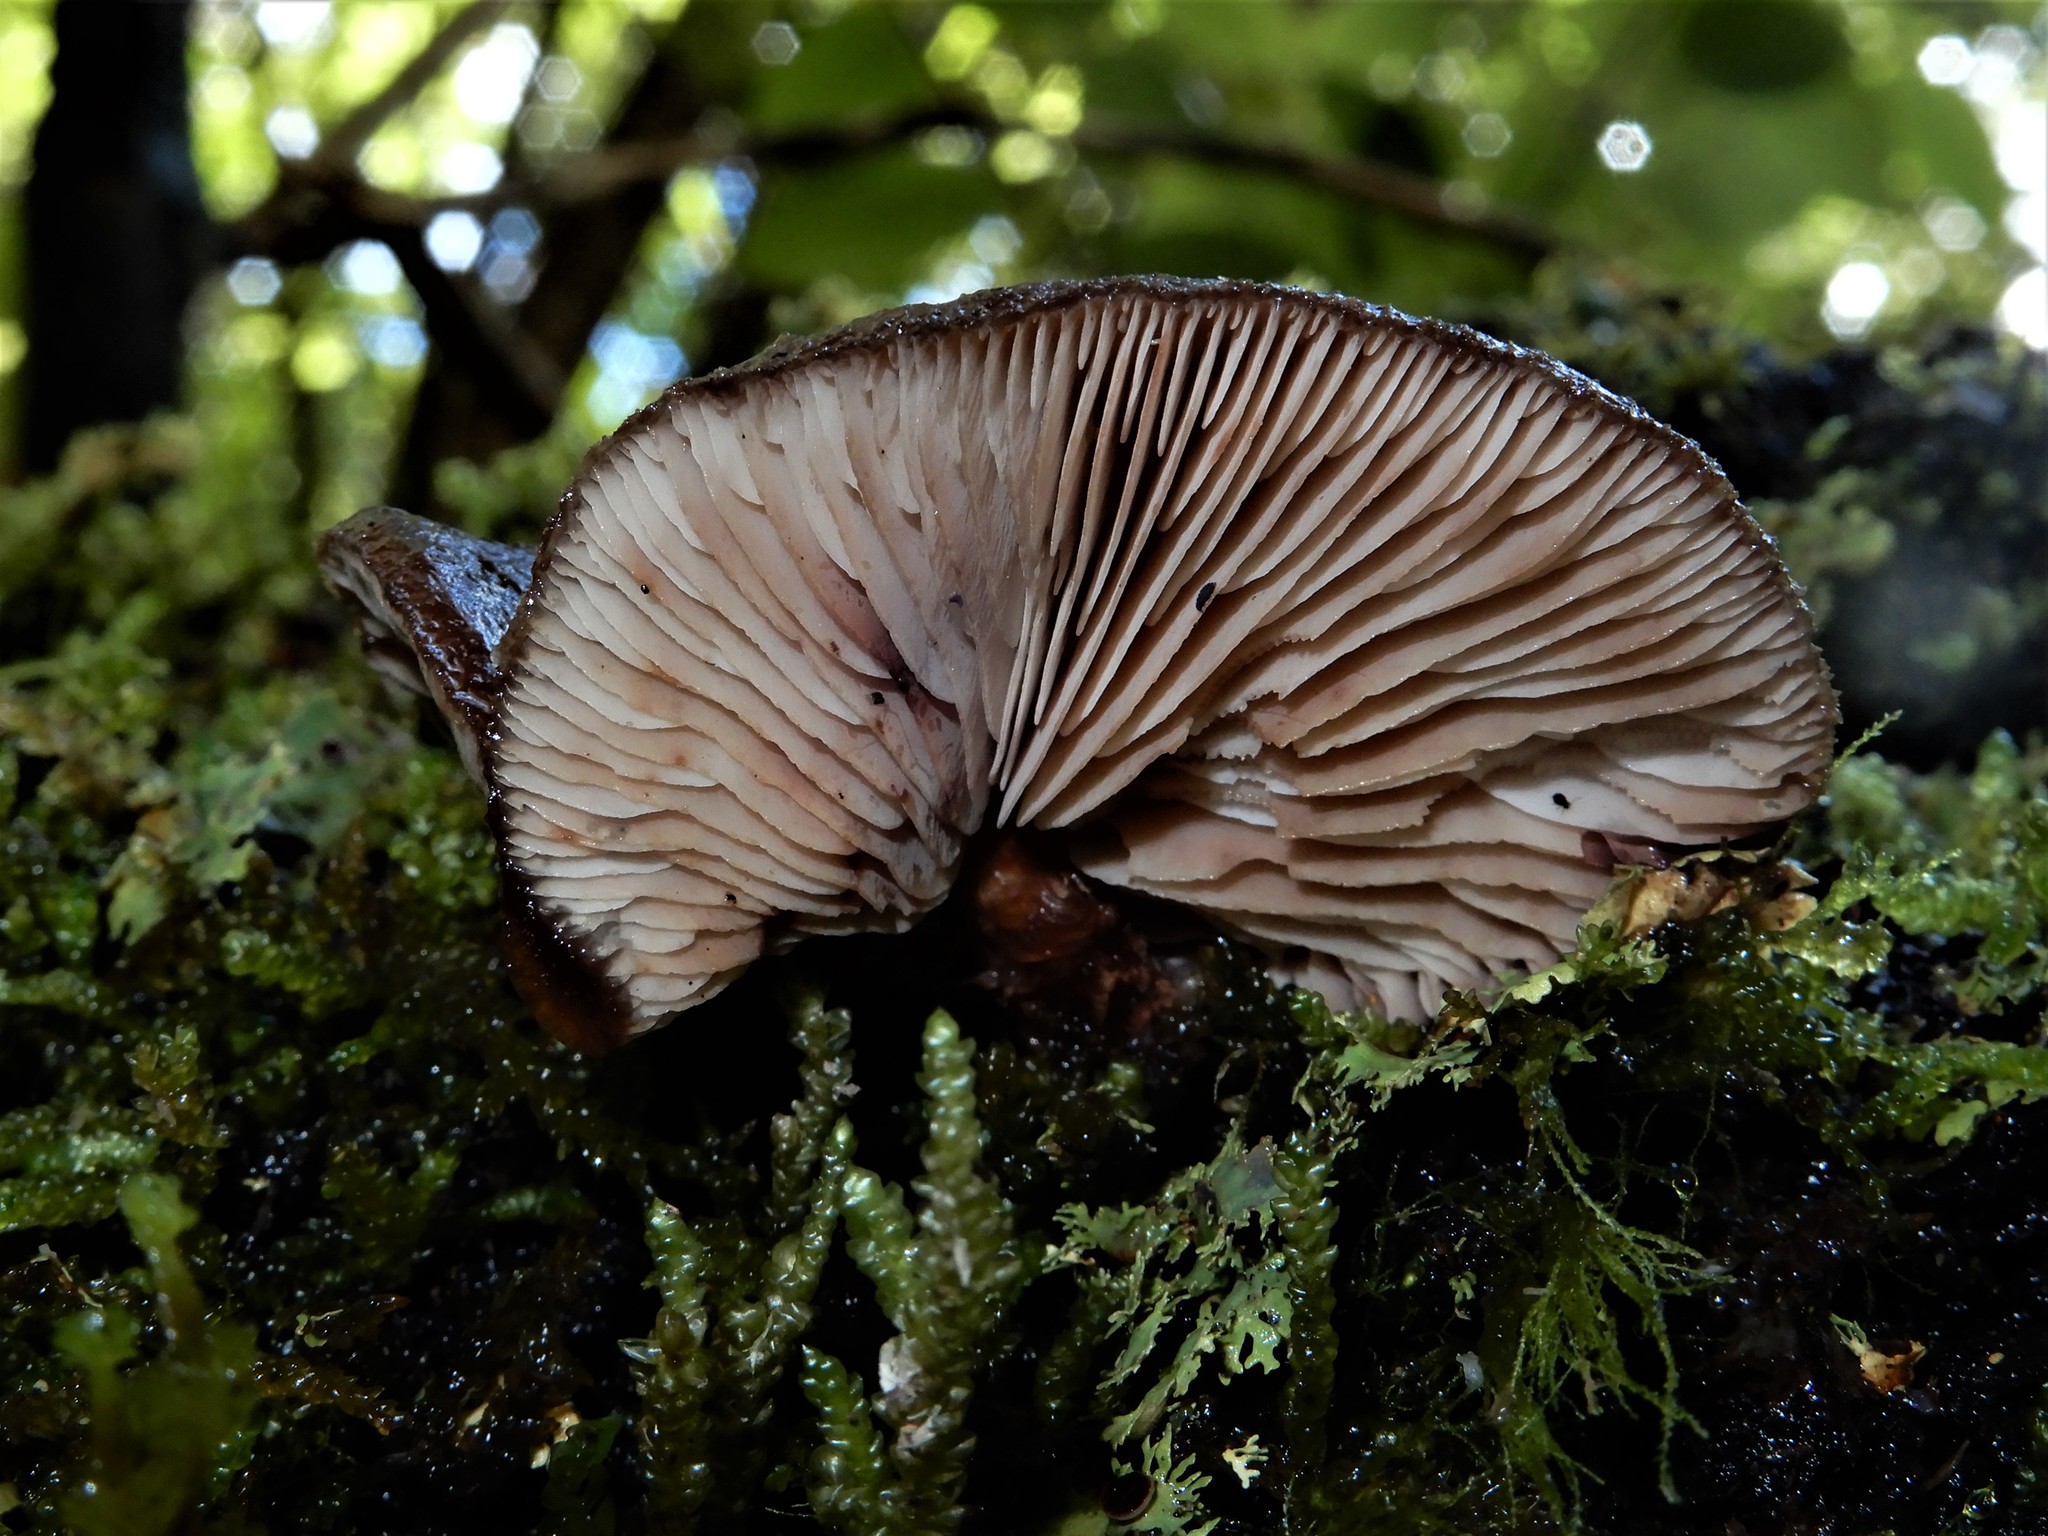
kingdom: Fungi
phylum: Basidiomycota
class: Agaricomycetes
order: Agaricales
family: Omphalotaceae
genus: Lentinula
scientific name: Lentinula novae-zelandiae
